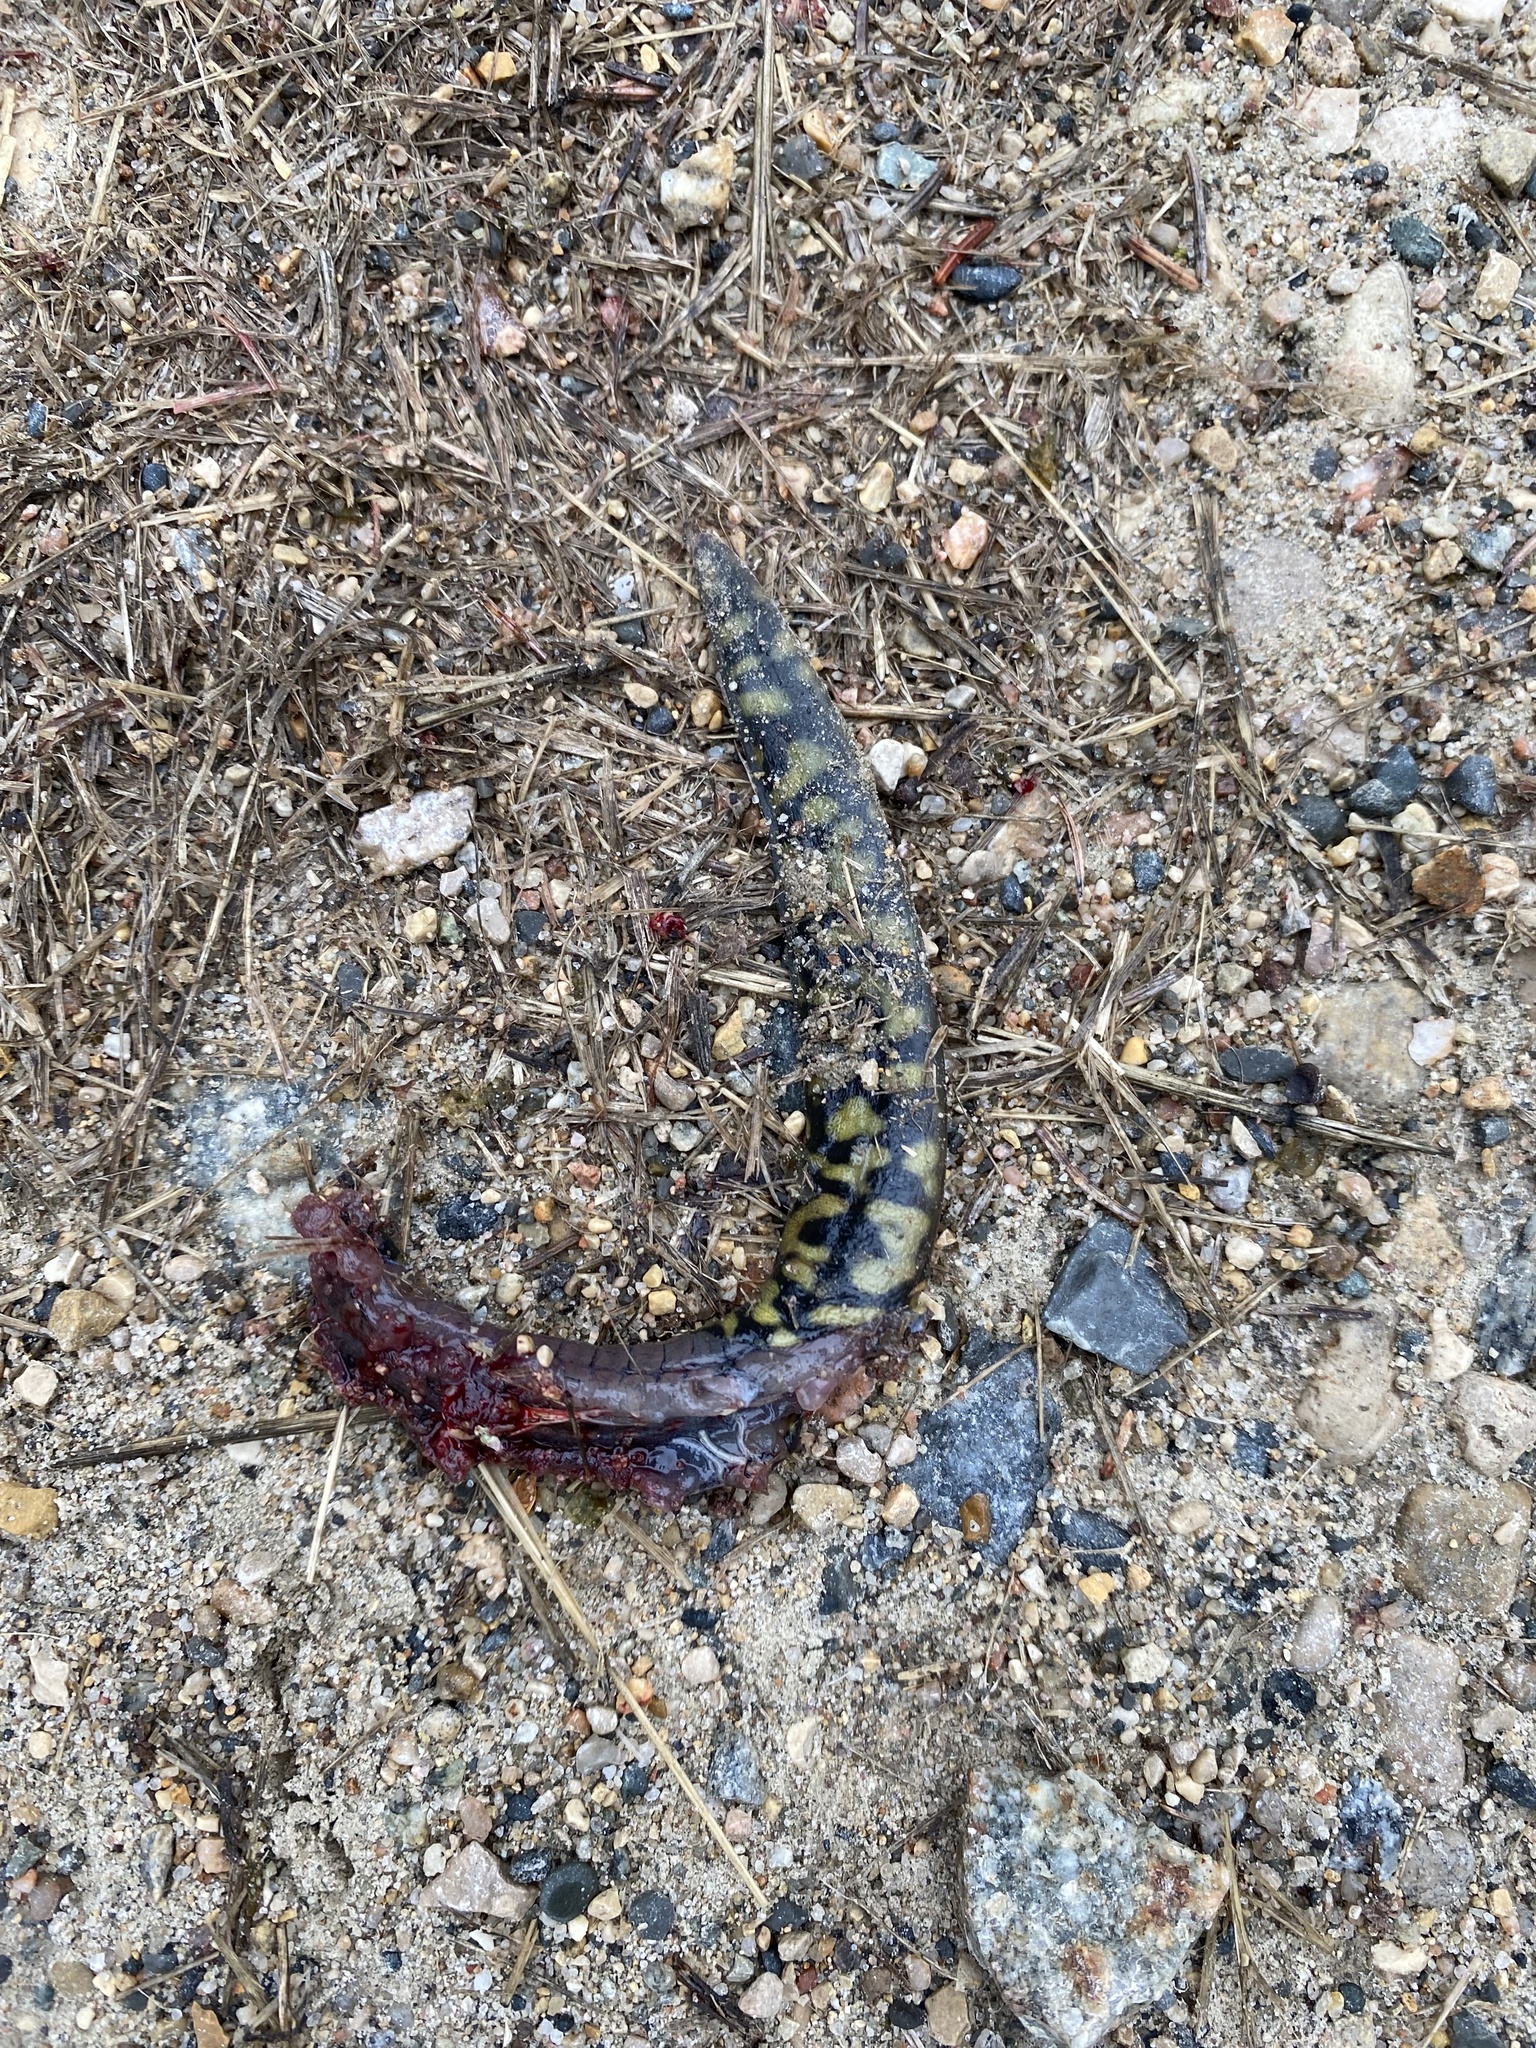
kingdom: Animalia
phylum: Chordata
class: Amphibia
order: Caudata
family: Ambystomatidae
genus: Ambystoma
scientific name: Ambystoma mavortium
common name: Western tiger salamander
